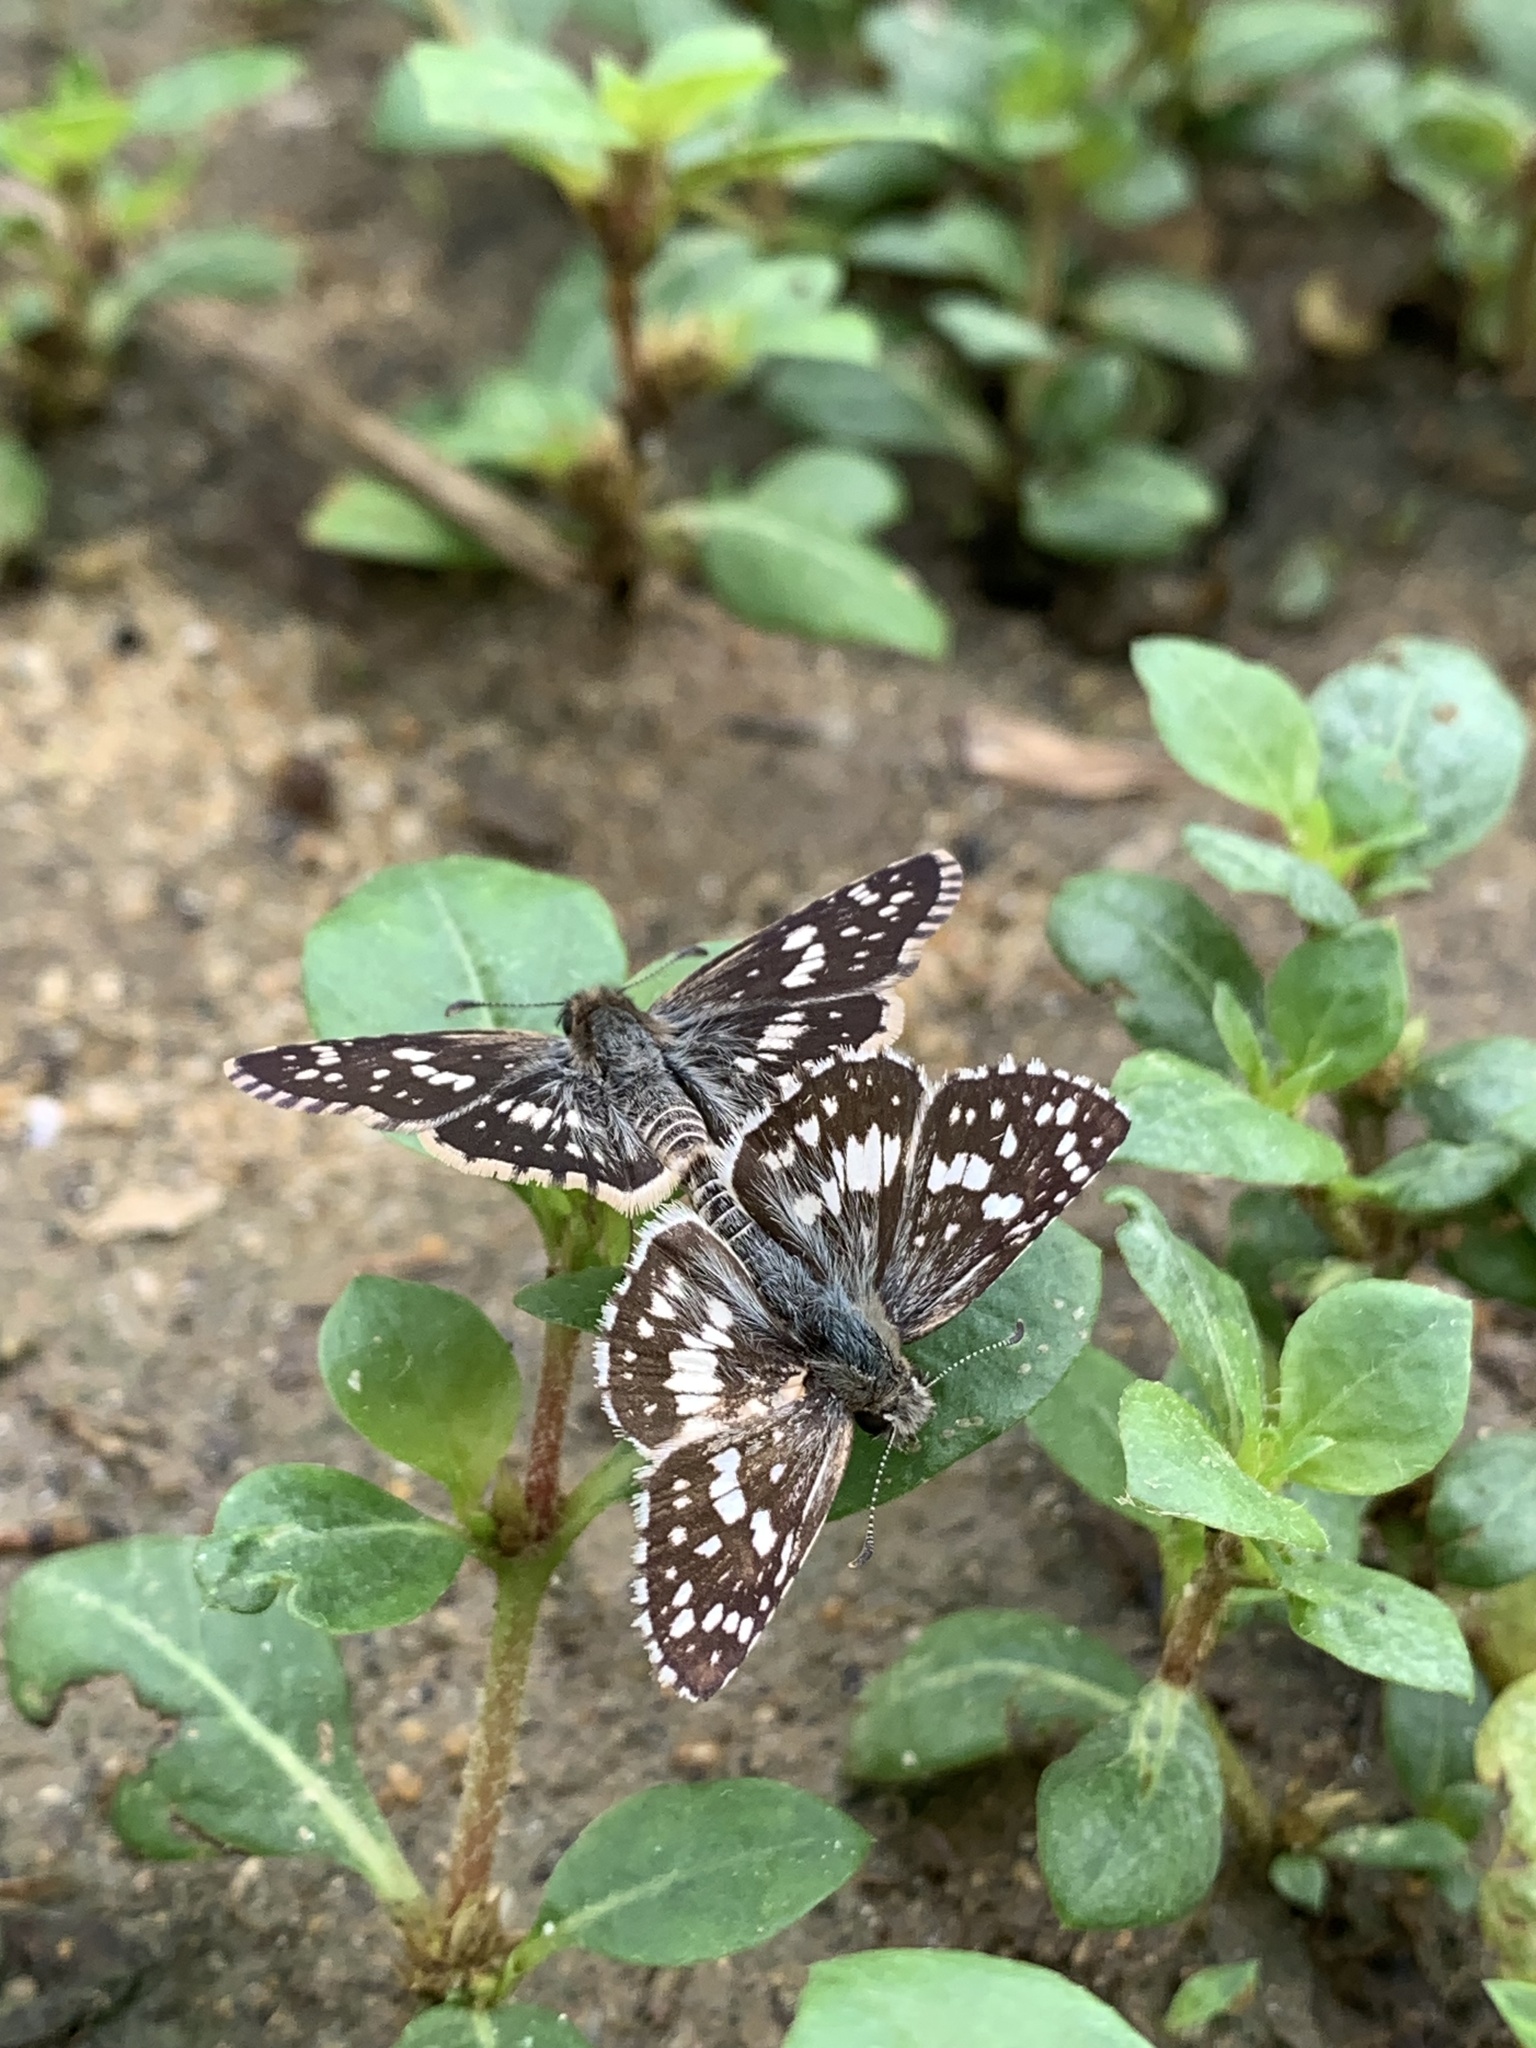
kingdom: Animalia
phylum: Arthropoda
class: Insecta
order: Lepidoptera
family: Hesperiidae
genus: Burnsius
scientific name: Burnsius orcynoides
